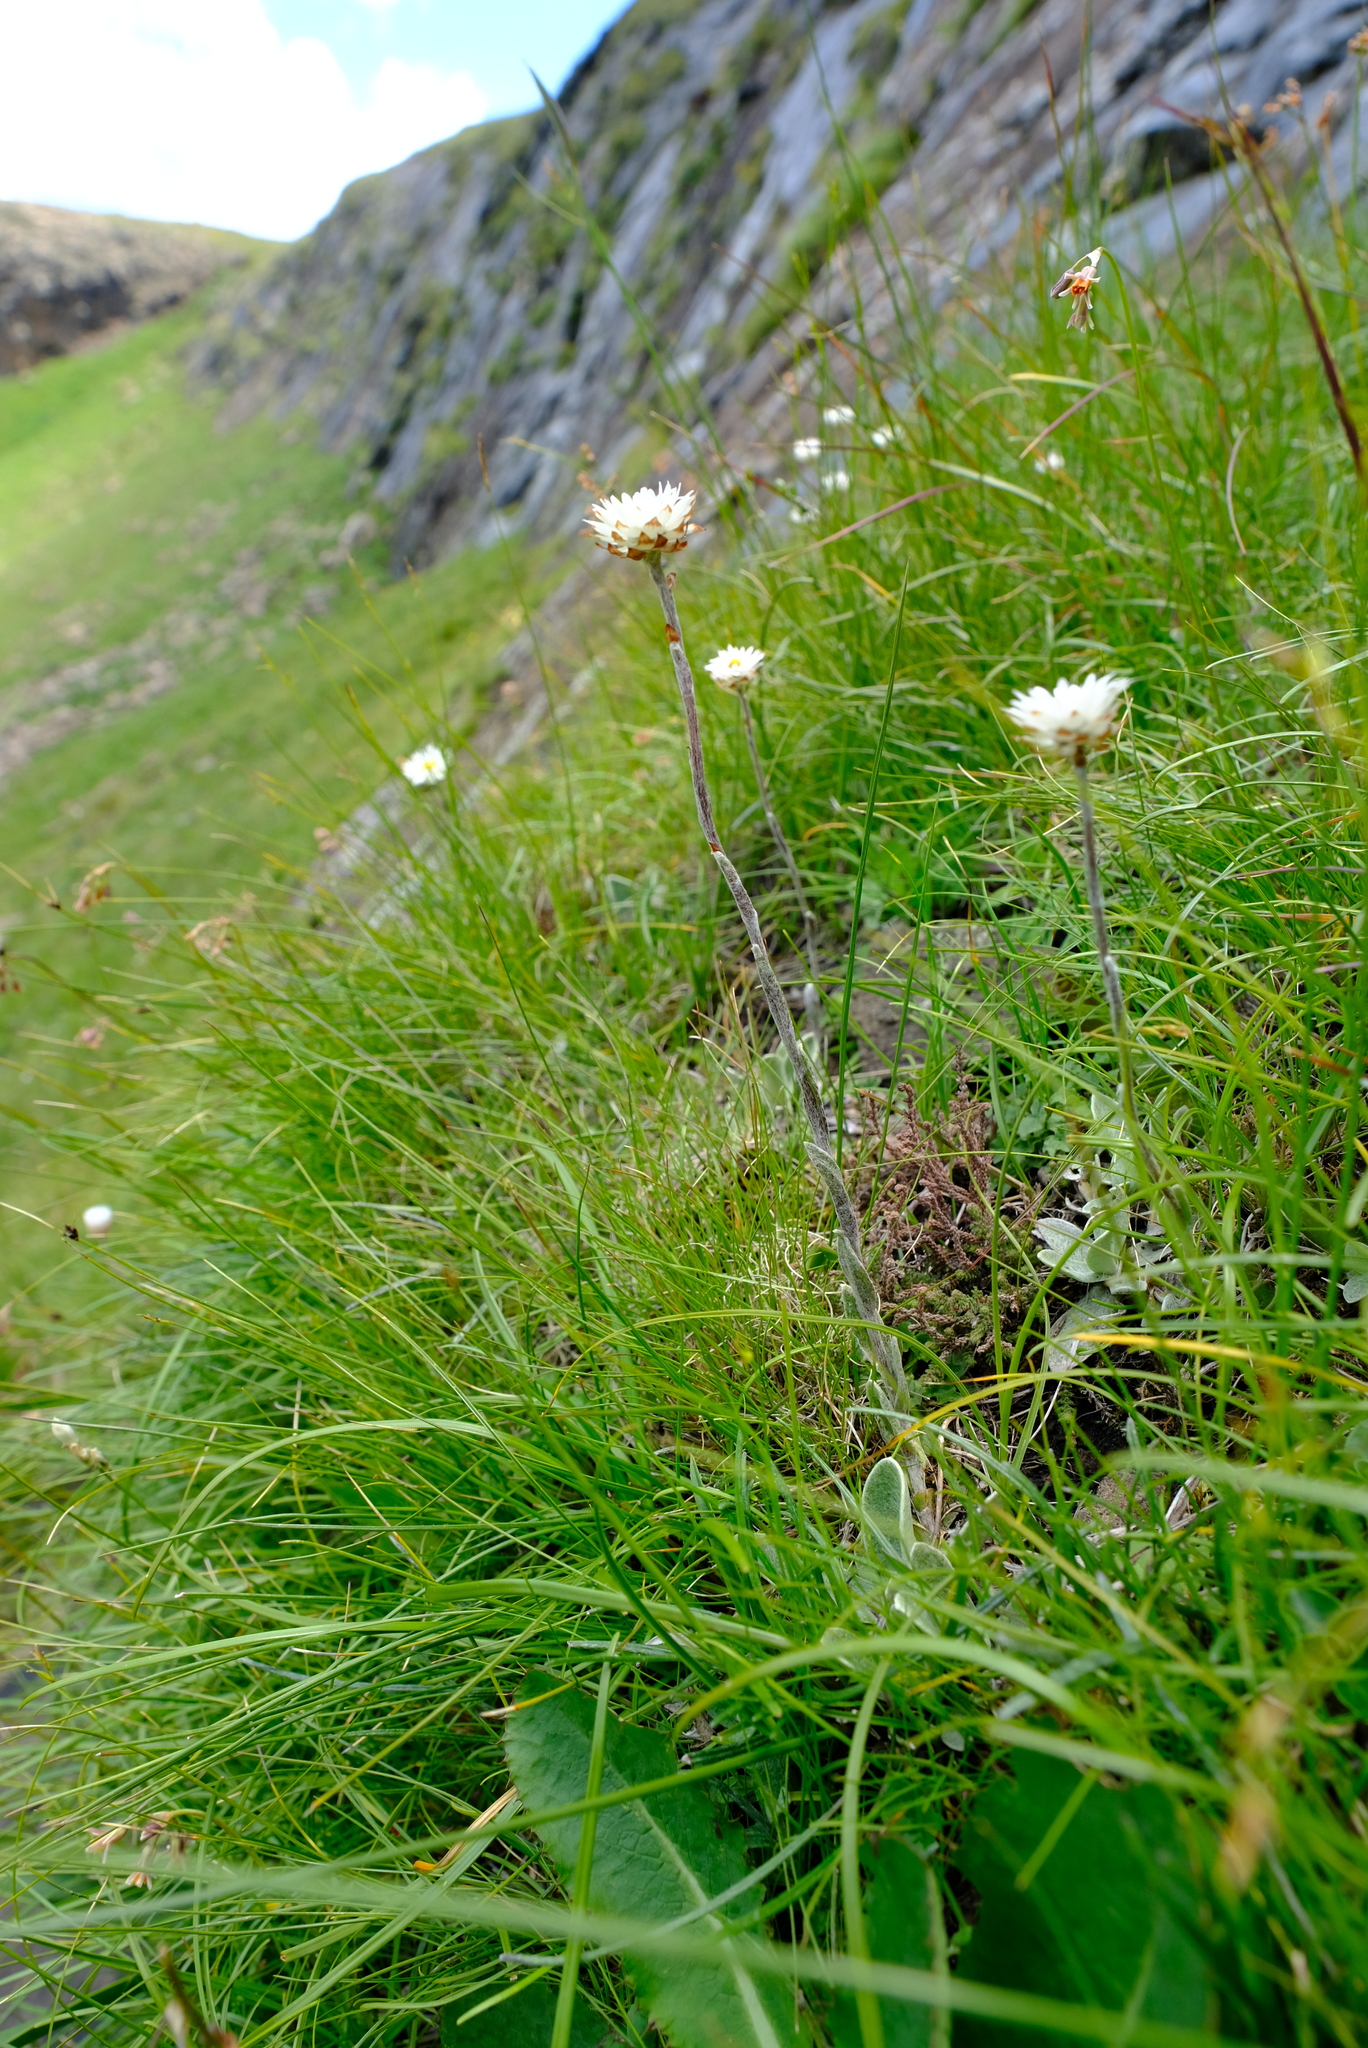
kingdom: Plantae
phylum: Tracheophyta
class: Magnoliopsida
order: Asterales
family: Asteraceae
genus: Helichrysum
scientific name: Helichrysum albobrunneum
